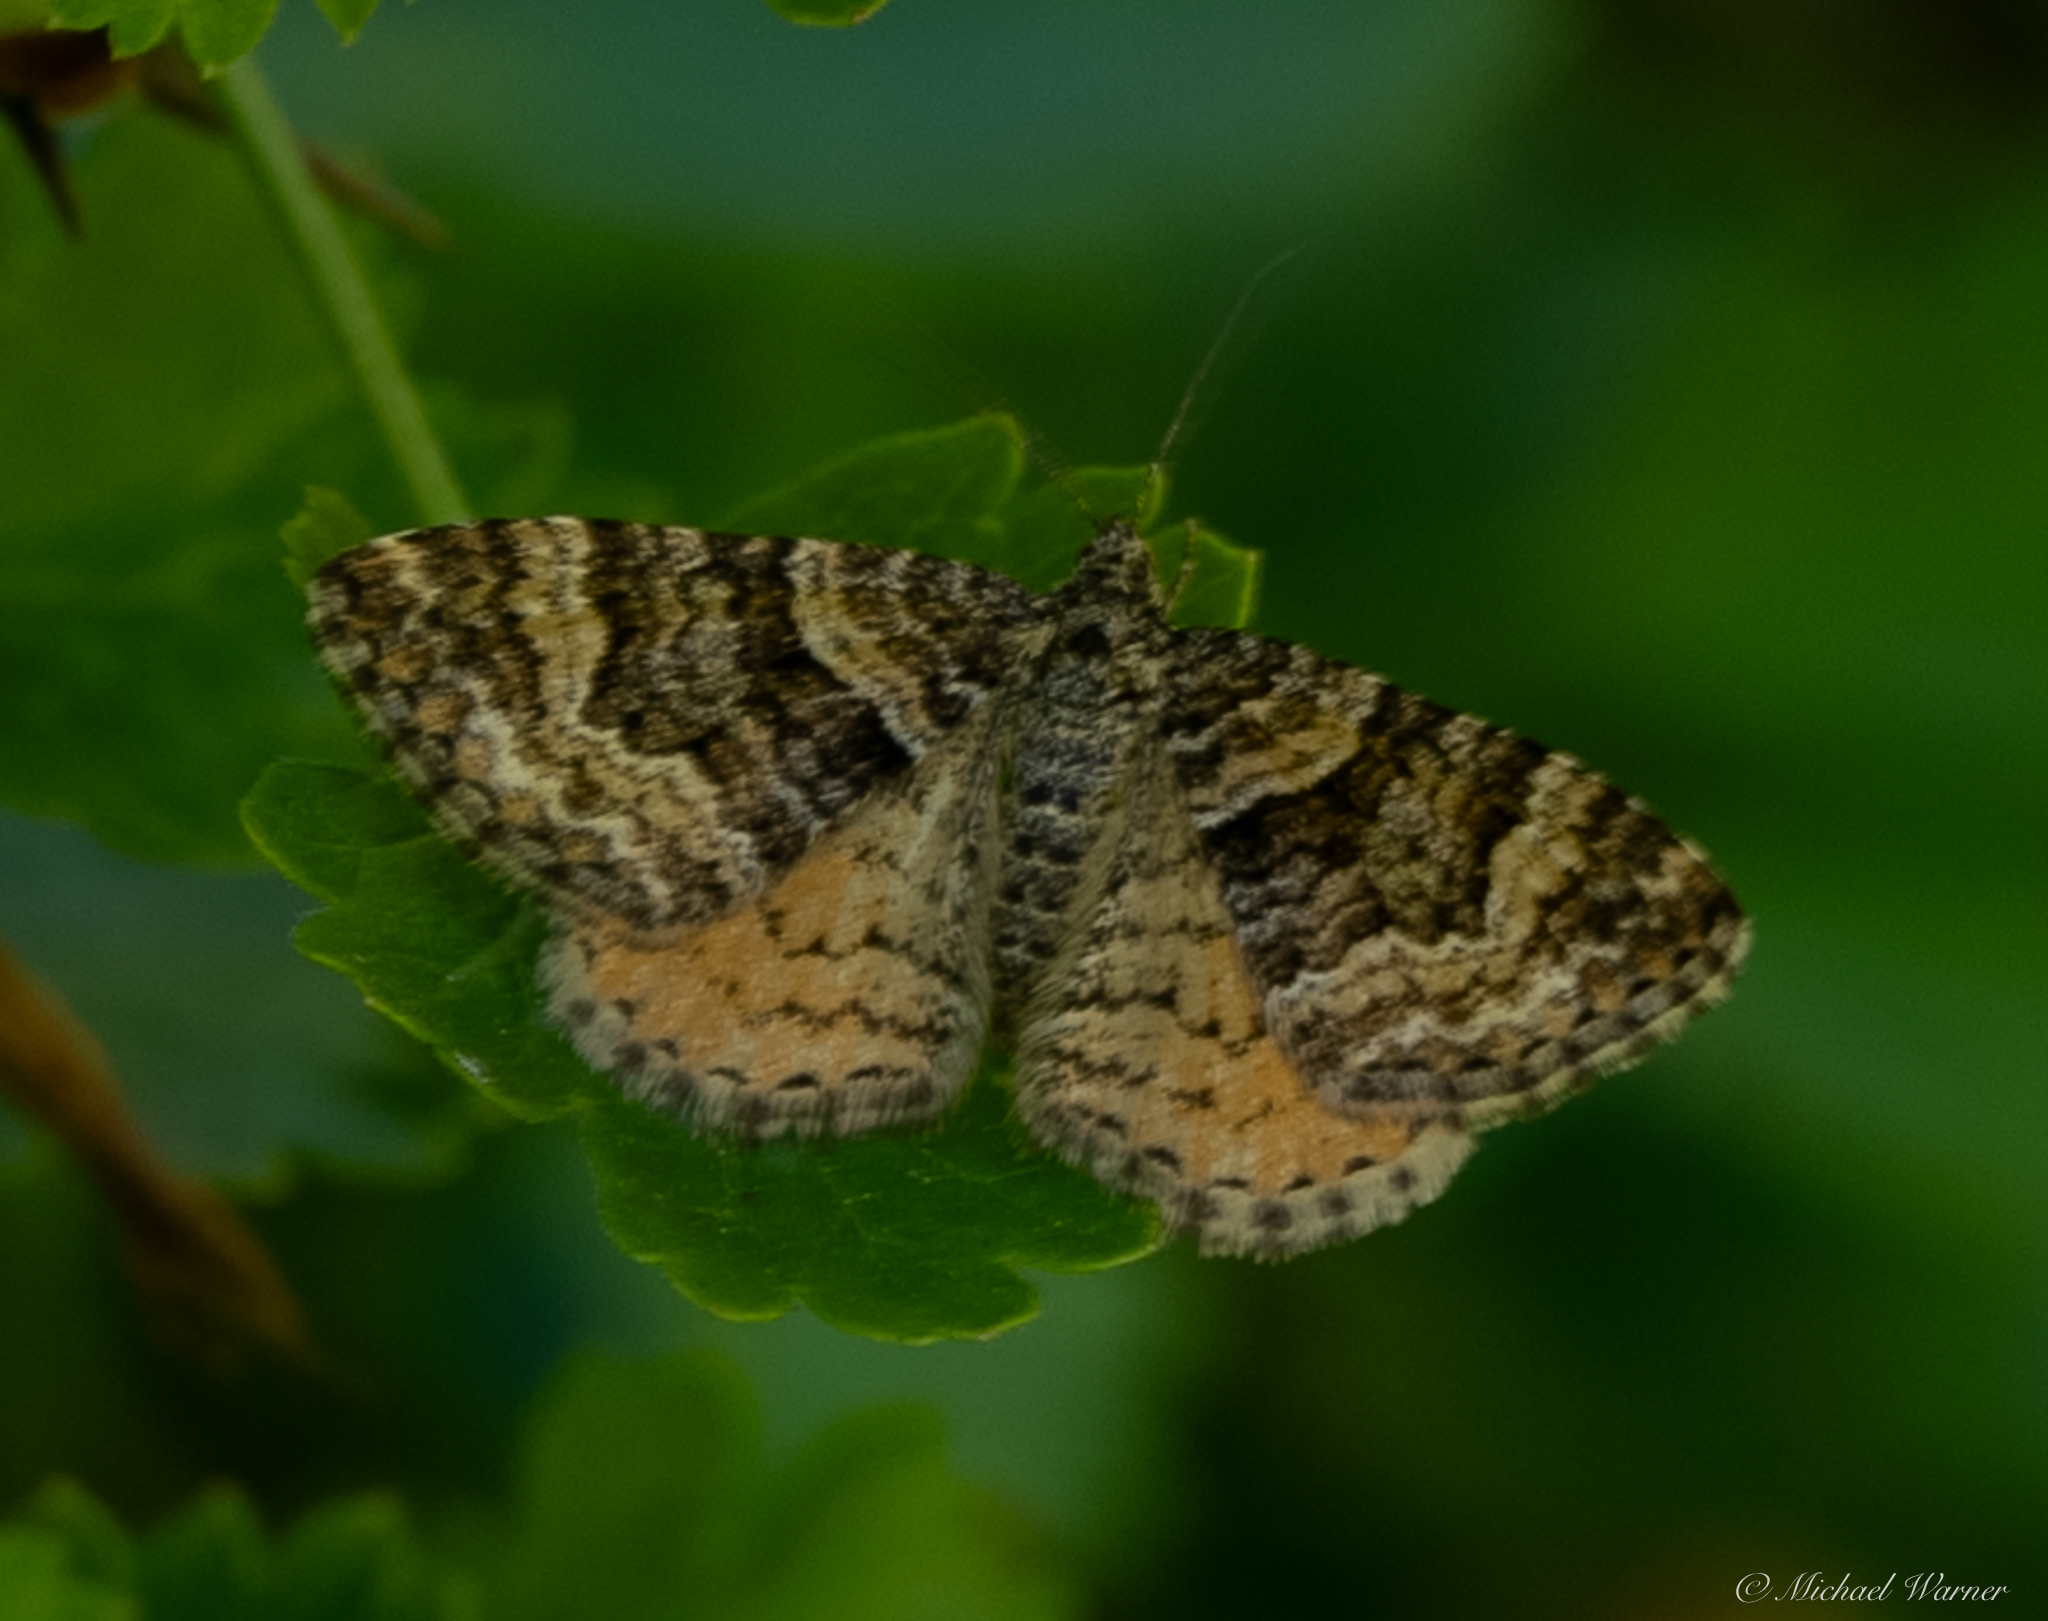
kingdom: Animalia
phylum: Arthropoda
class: Insecta
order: Lepidoptera
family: Geometridae
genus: Epirrhoe
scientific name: Epirrhoe plebeculata
